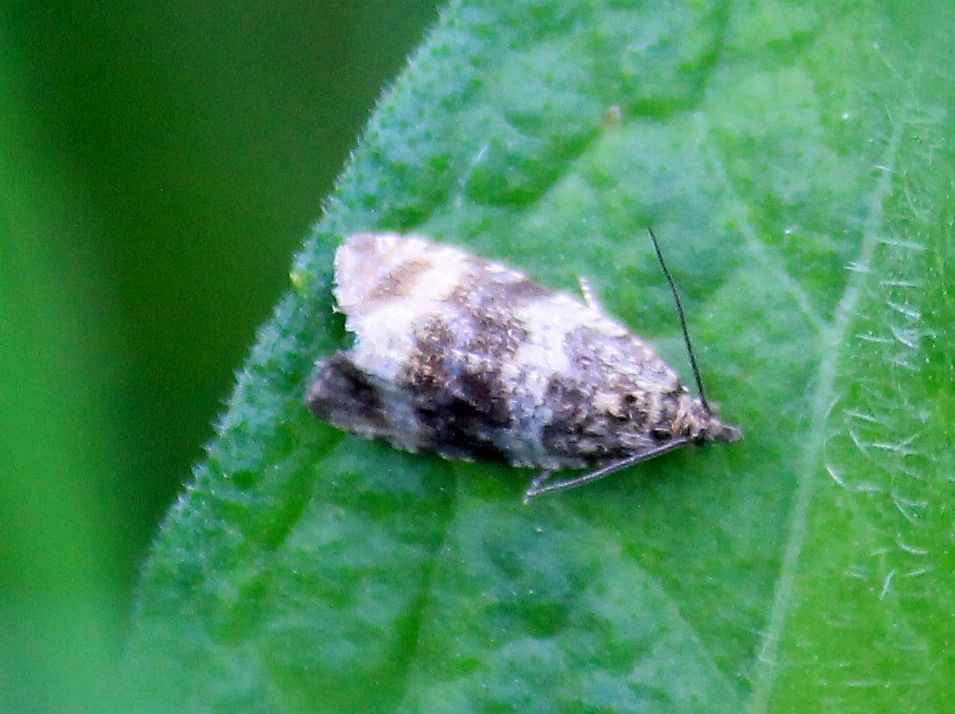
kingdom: Animalia
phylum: Arthropoda
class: Insecta
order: Lepidoptera
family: Tortricidae
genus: Syricoris
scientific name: Syricoris lacunana
